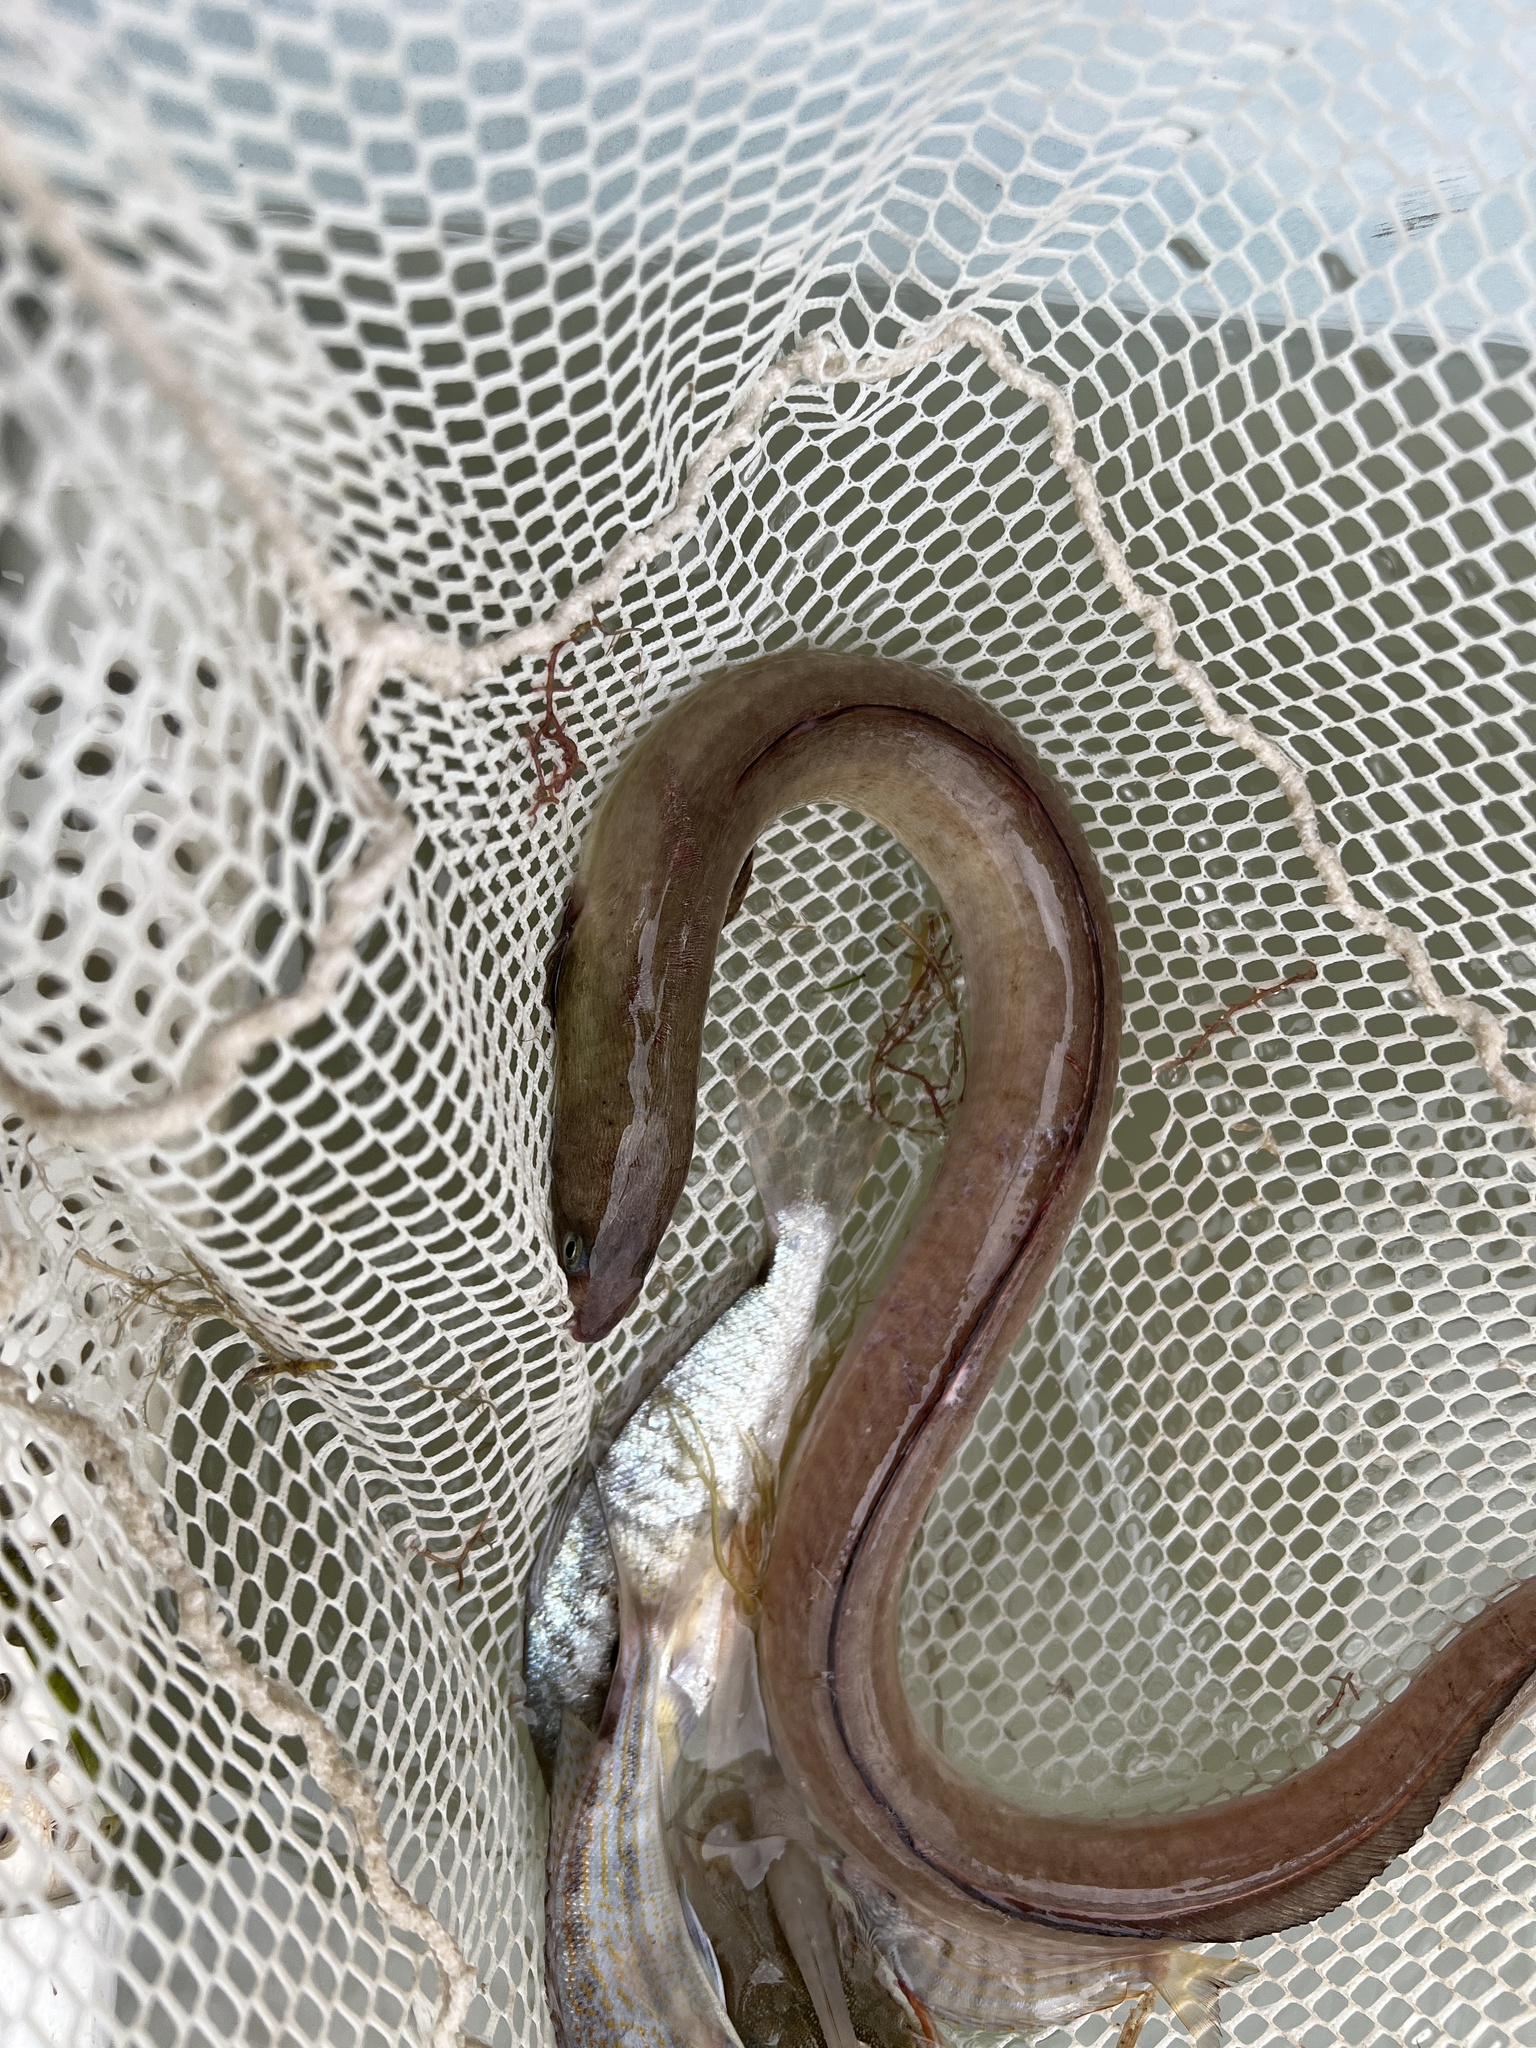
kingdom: Animalia
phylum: Chordata
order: Anguilliformes
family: Ophichthidae
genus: Ophichthus
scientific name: Ophichthus gomesii
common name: Shrimp eel
